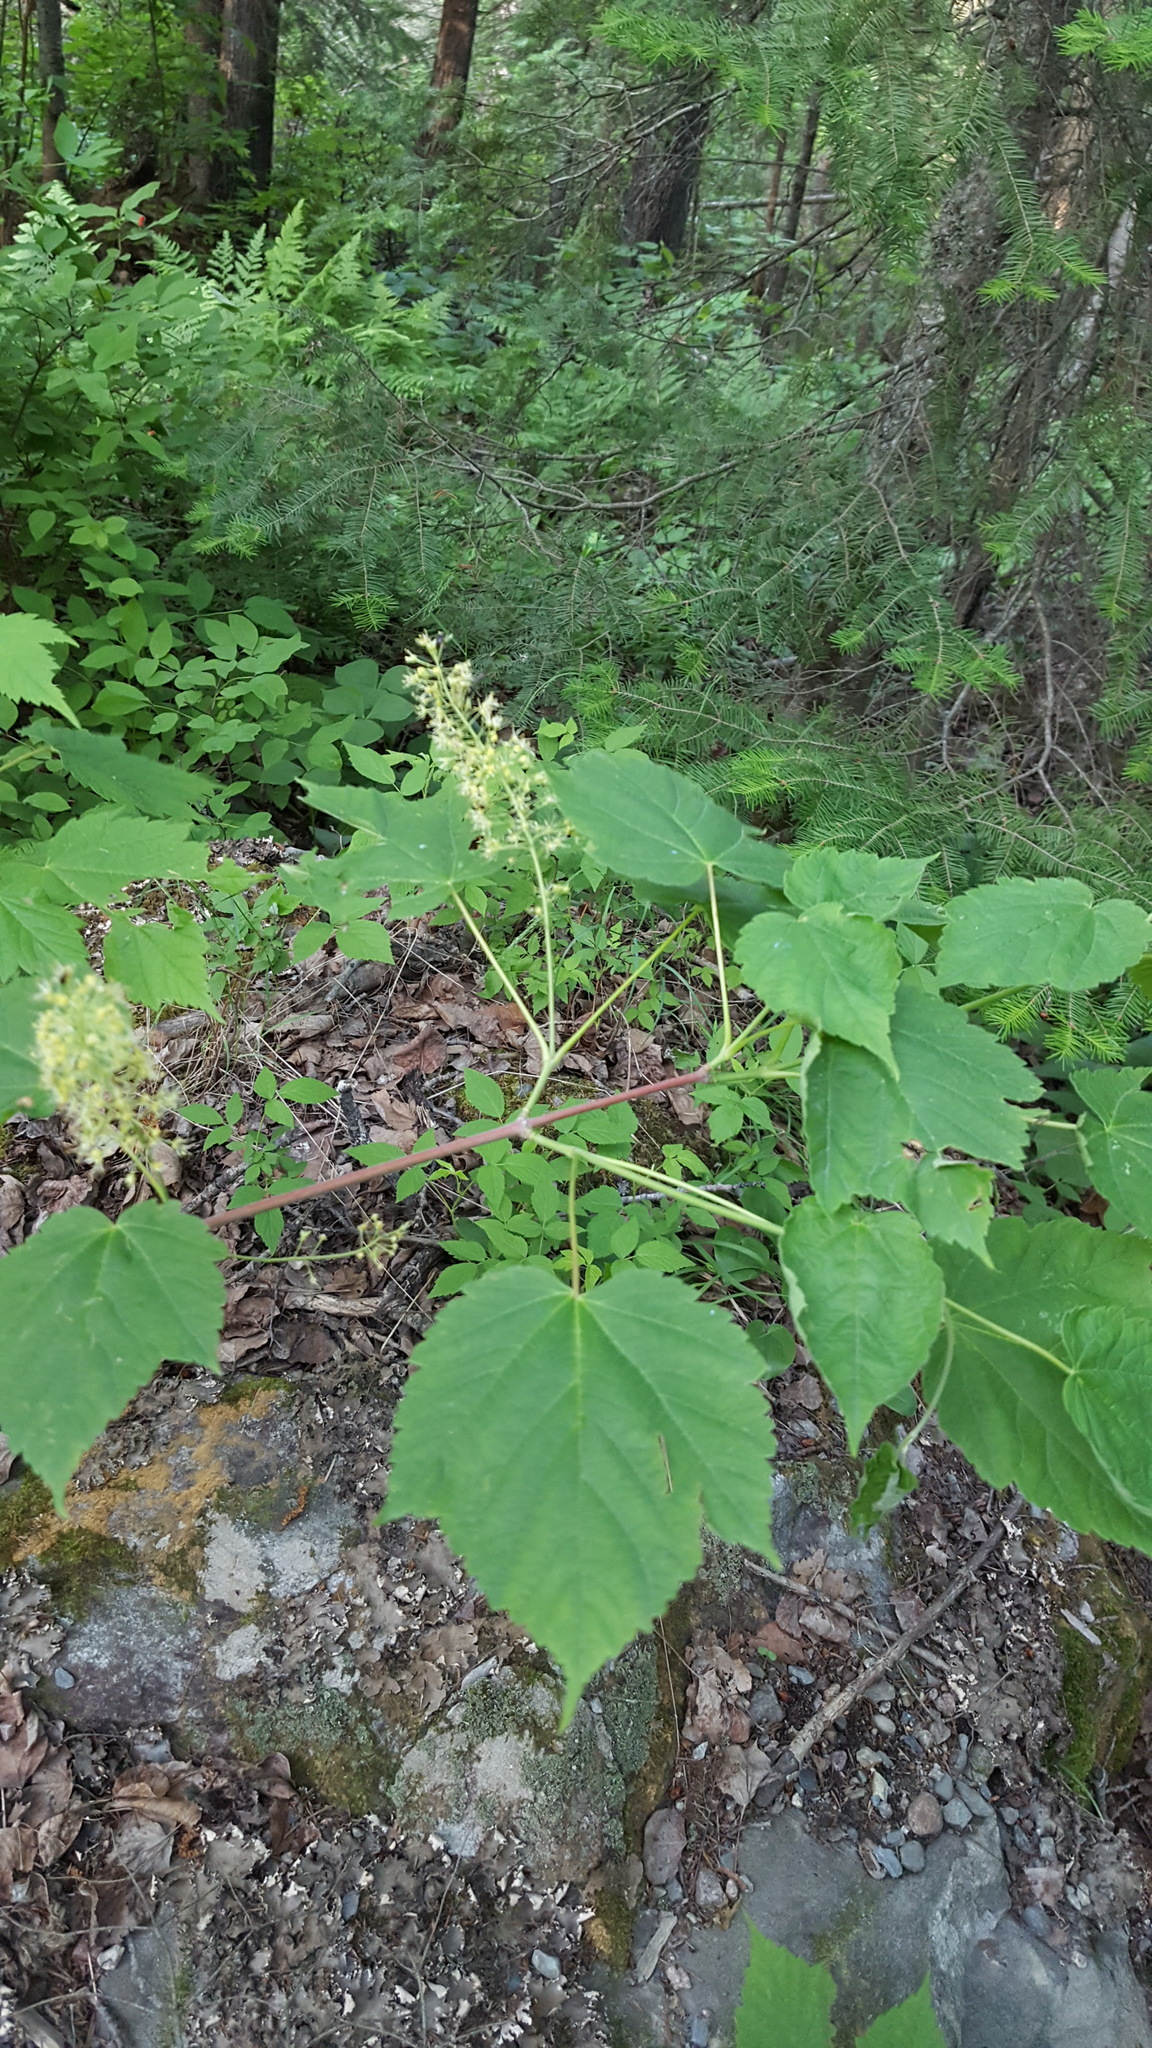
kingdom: Plantae
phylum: Tracheophyta
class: Magnoliopsida
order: Sapindales
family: Sapindaceae
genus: Acer
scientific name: Acer spicatum
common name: Mountain maple
